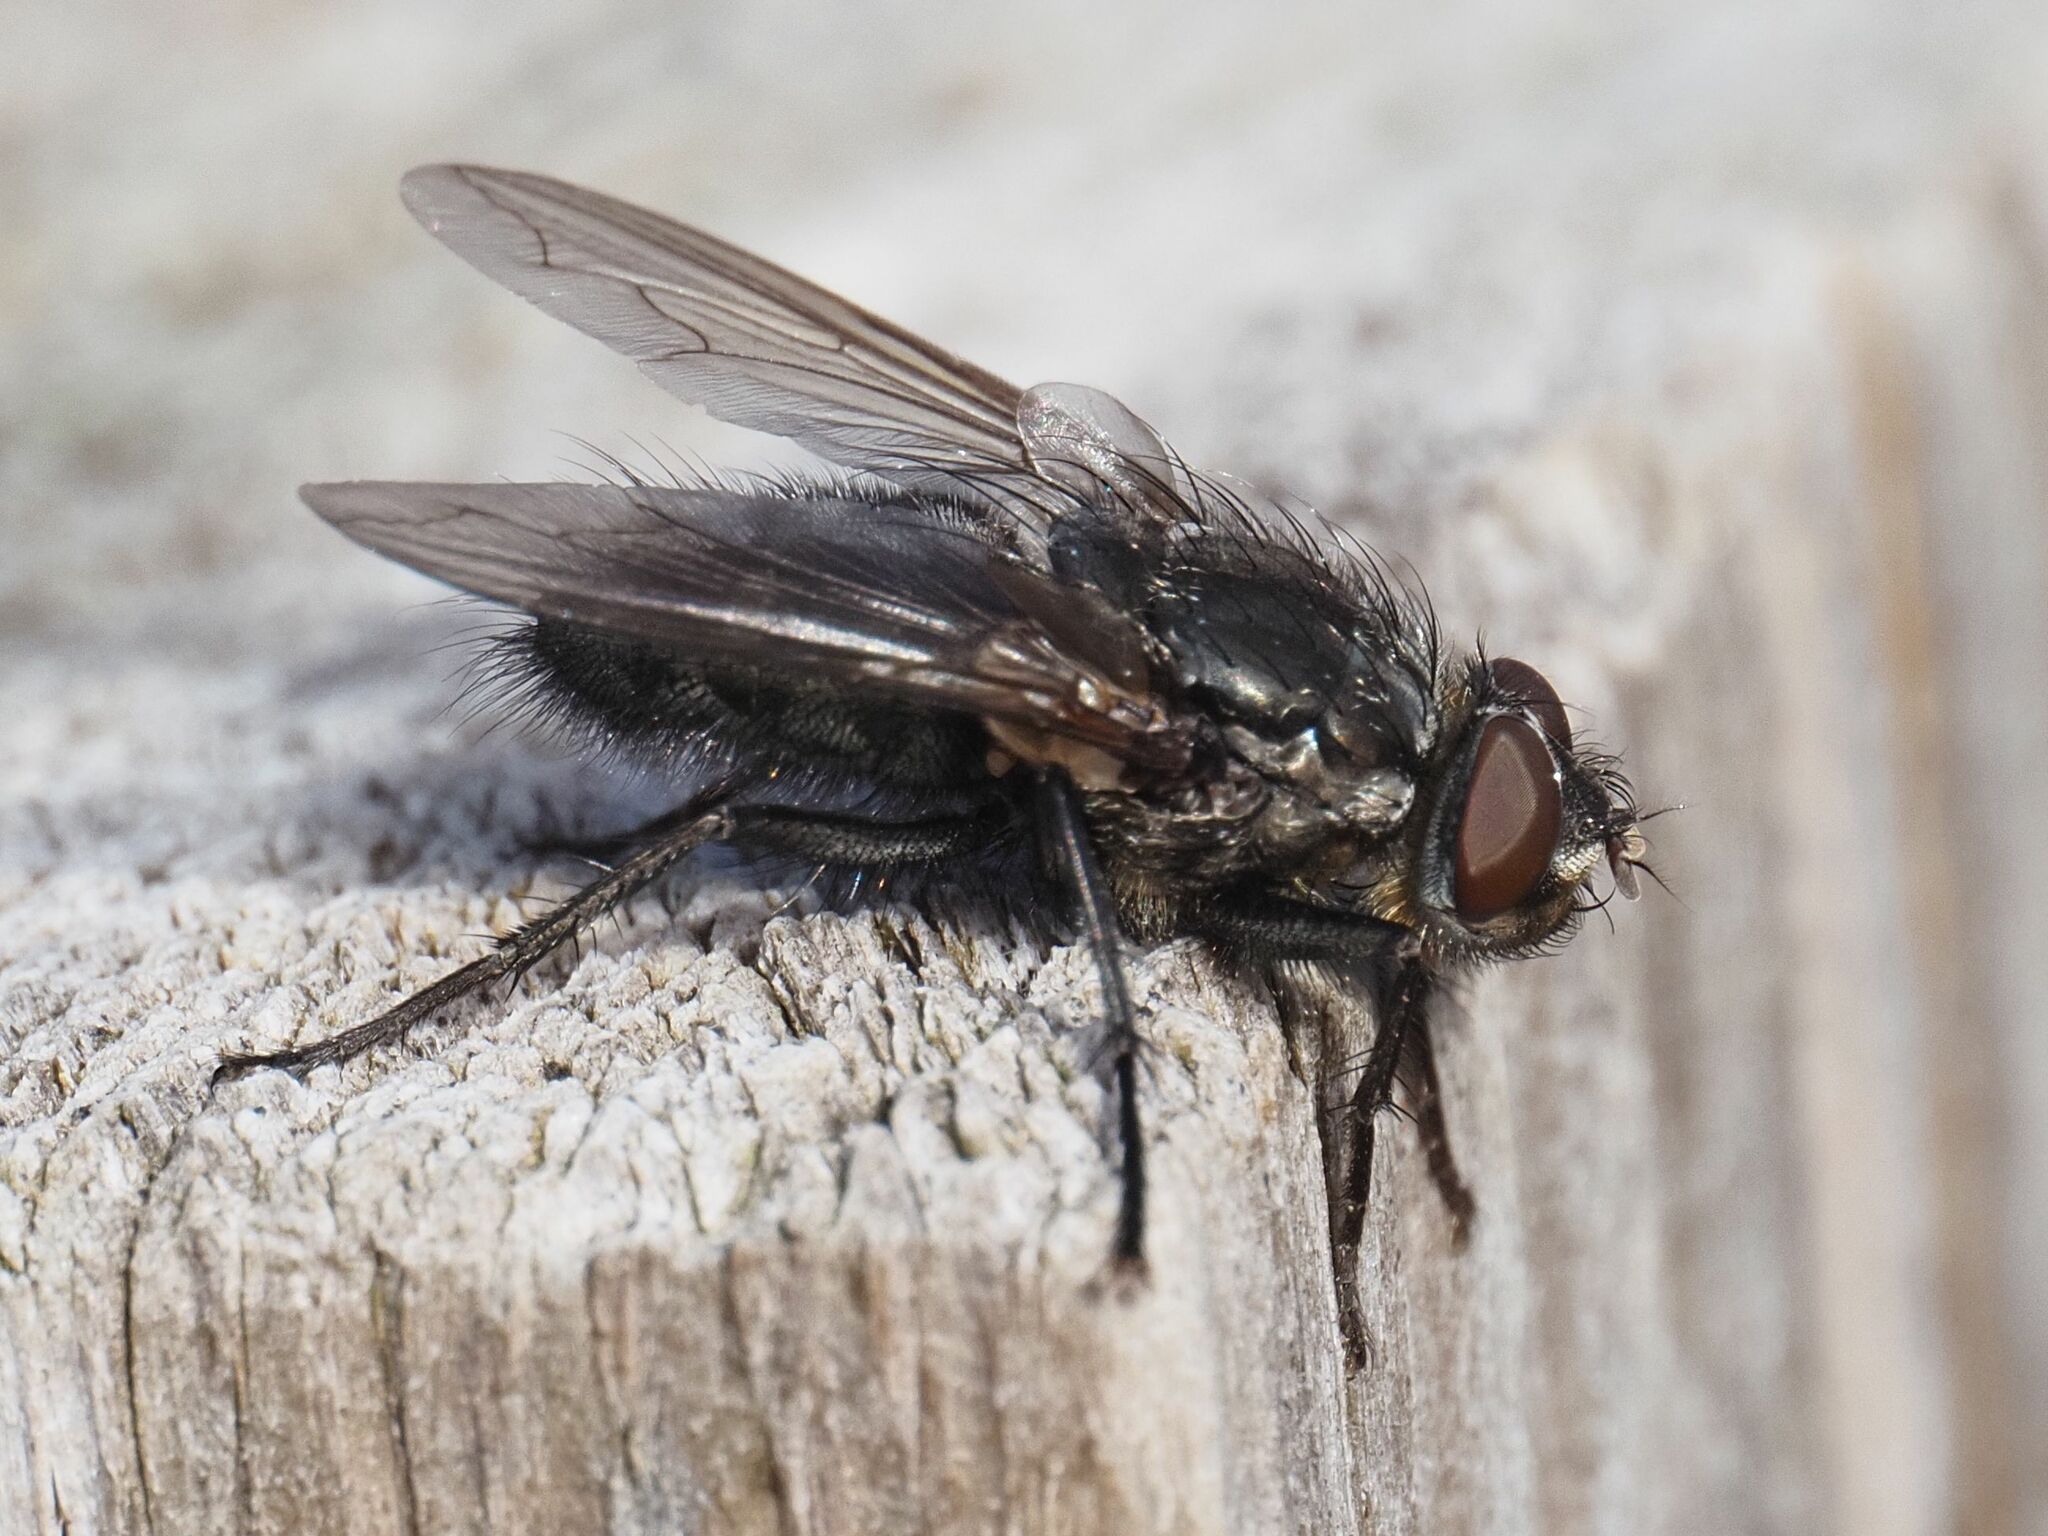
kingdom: Animalia
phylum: Arthropoda
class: Insecta
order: Diptera
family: Polleniidae
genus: Pollenia
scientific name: Pollenia vagabunda
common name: Vagabund cluster fly
